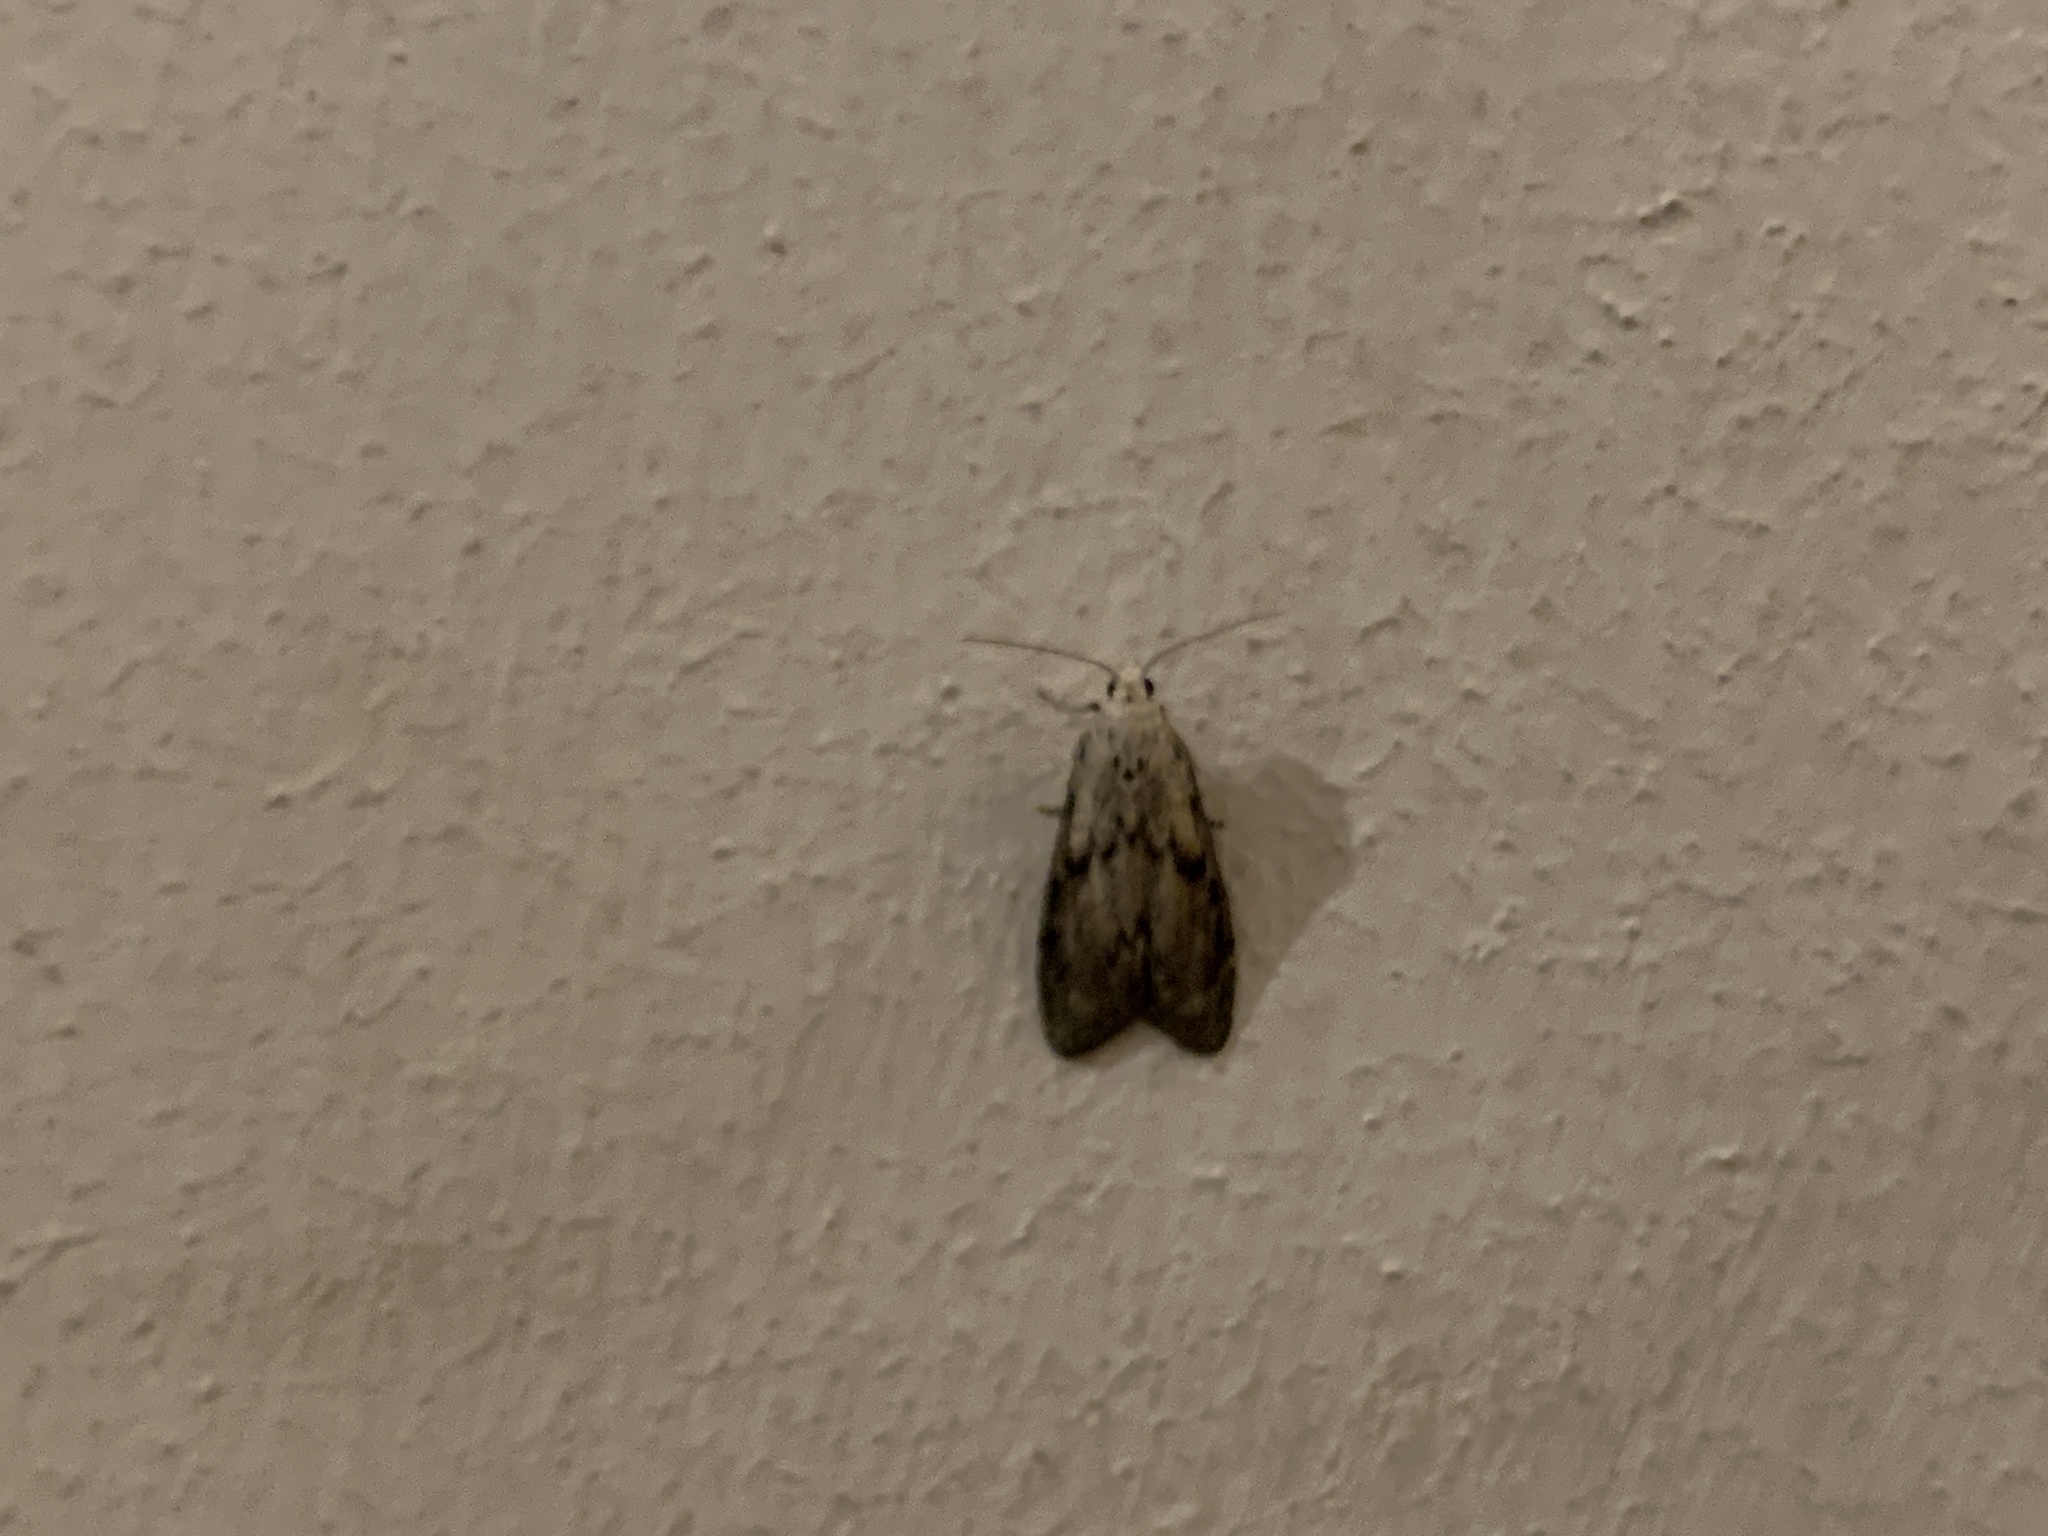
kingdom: Animalia
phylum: Arthropoda
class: Insecta
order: Lepidoptera
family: Pyralidae
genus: Aphomia
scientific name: Aphomia sociella
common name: Bee moth
